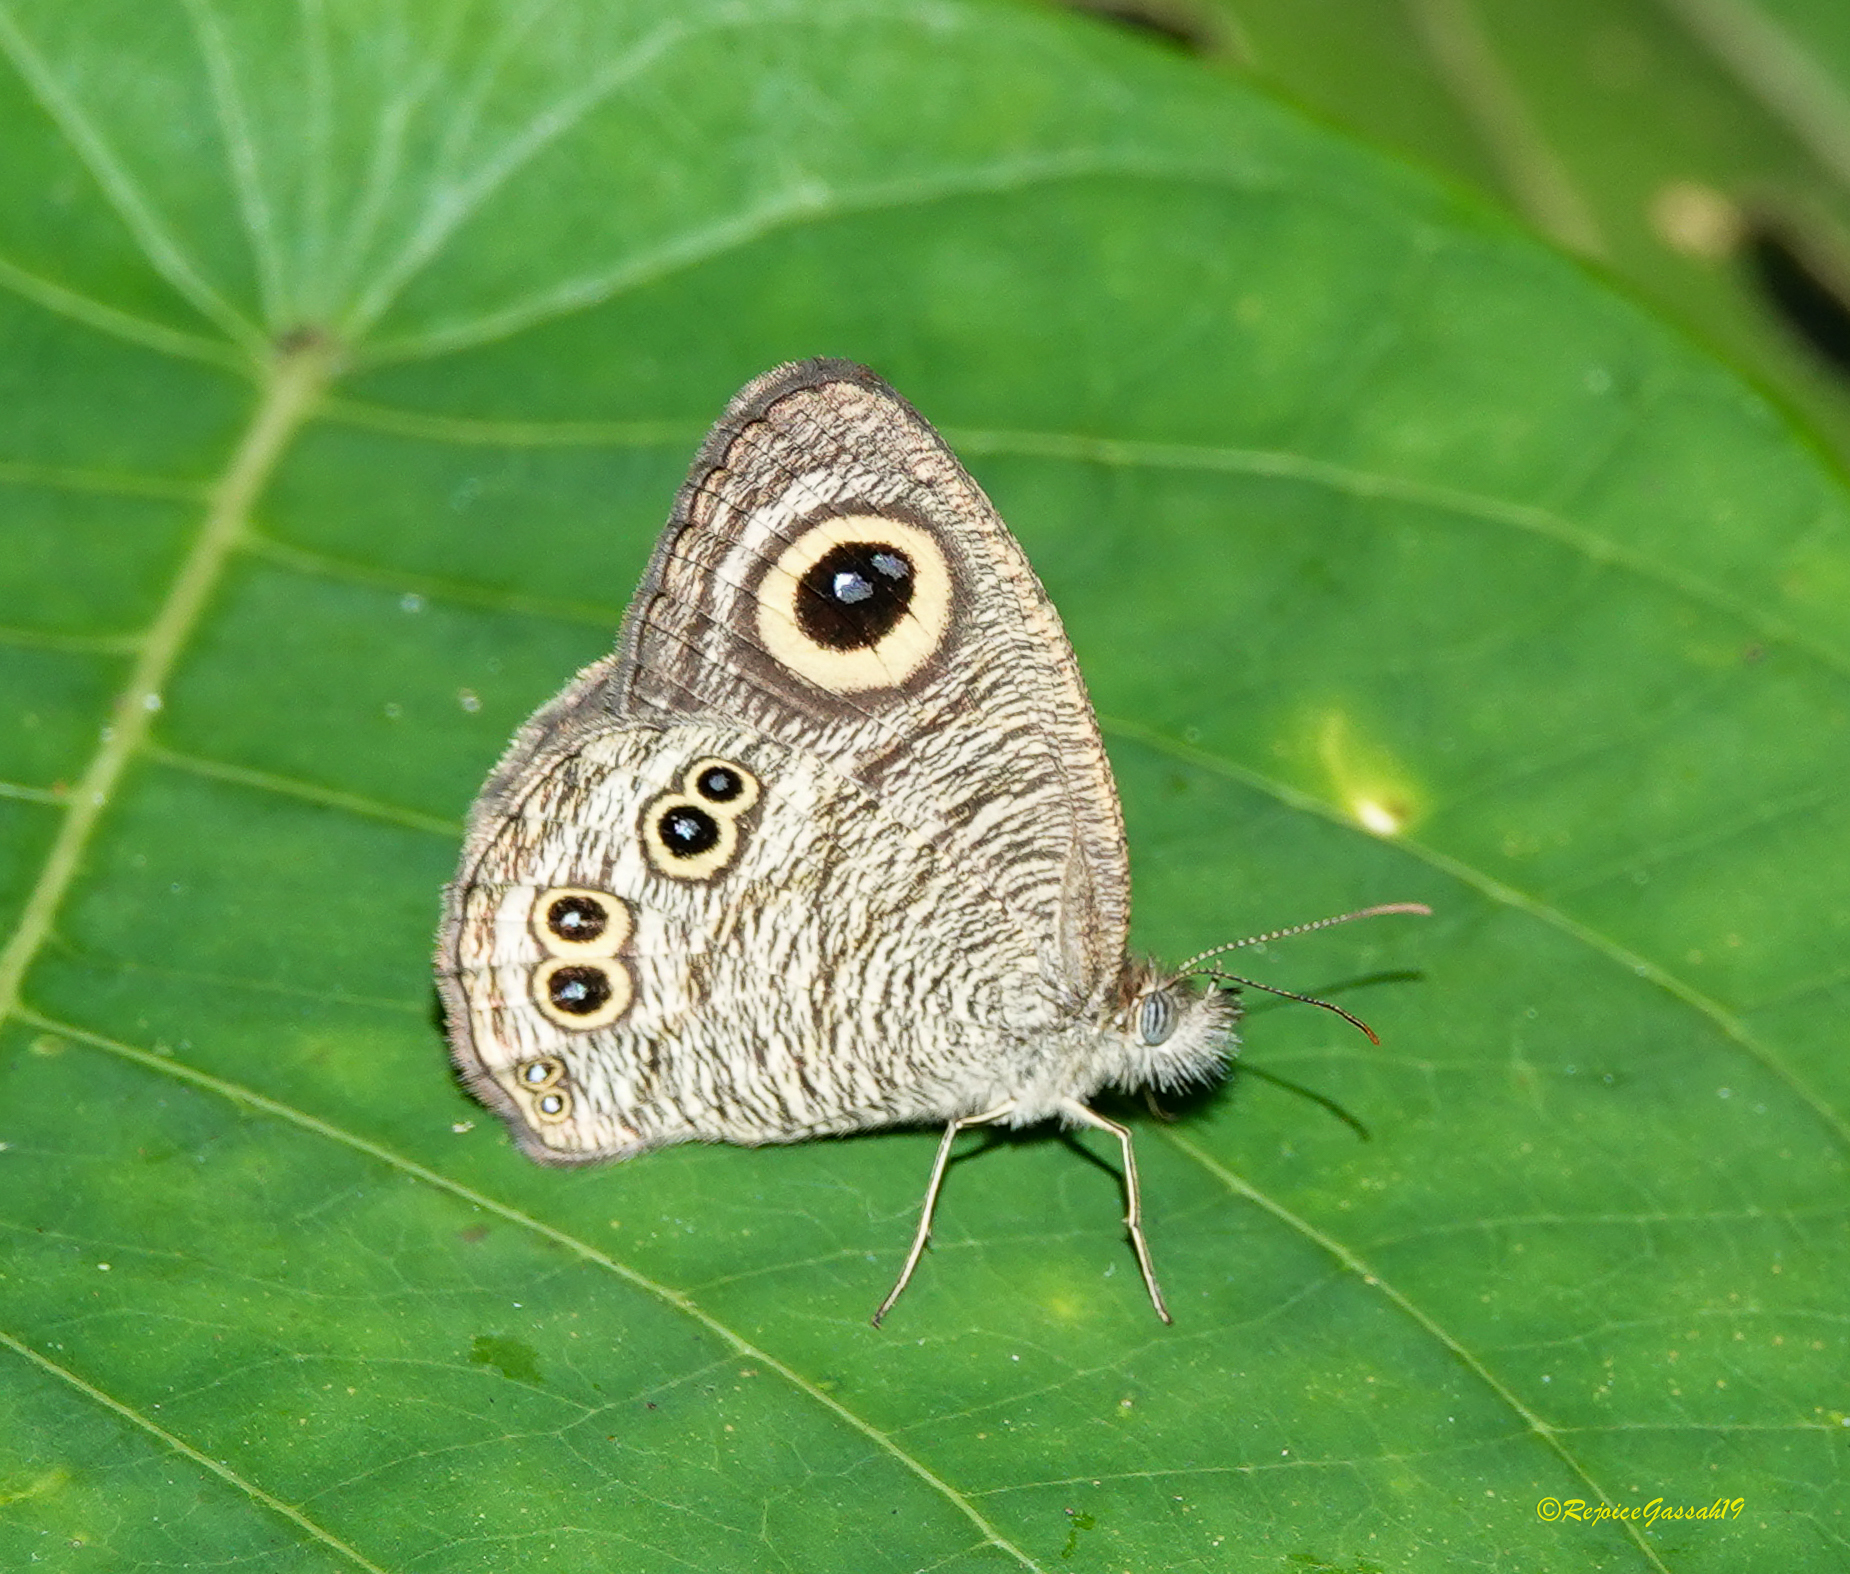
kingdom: Animalia
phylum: Arthropoda
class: Insecta
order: Lepidoptera
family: Nymphalidae
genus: Ypthima
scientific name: Ypthima baldus
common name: Common five-ring
